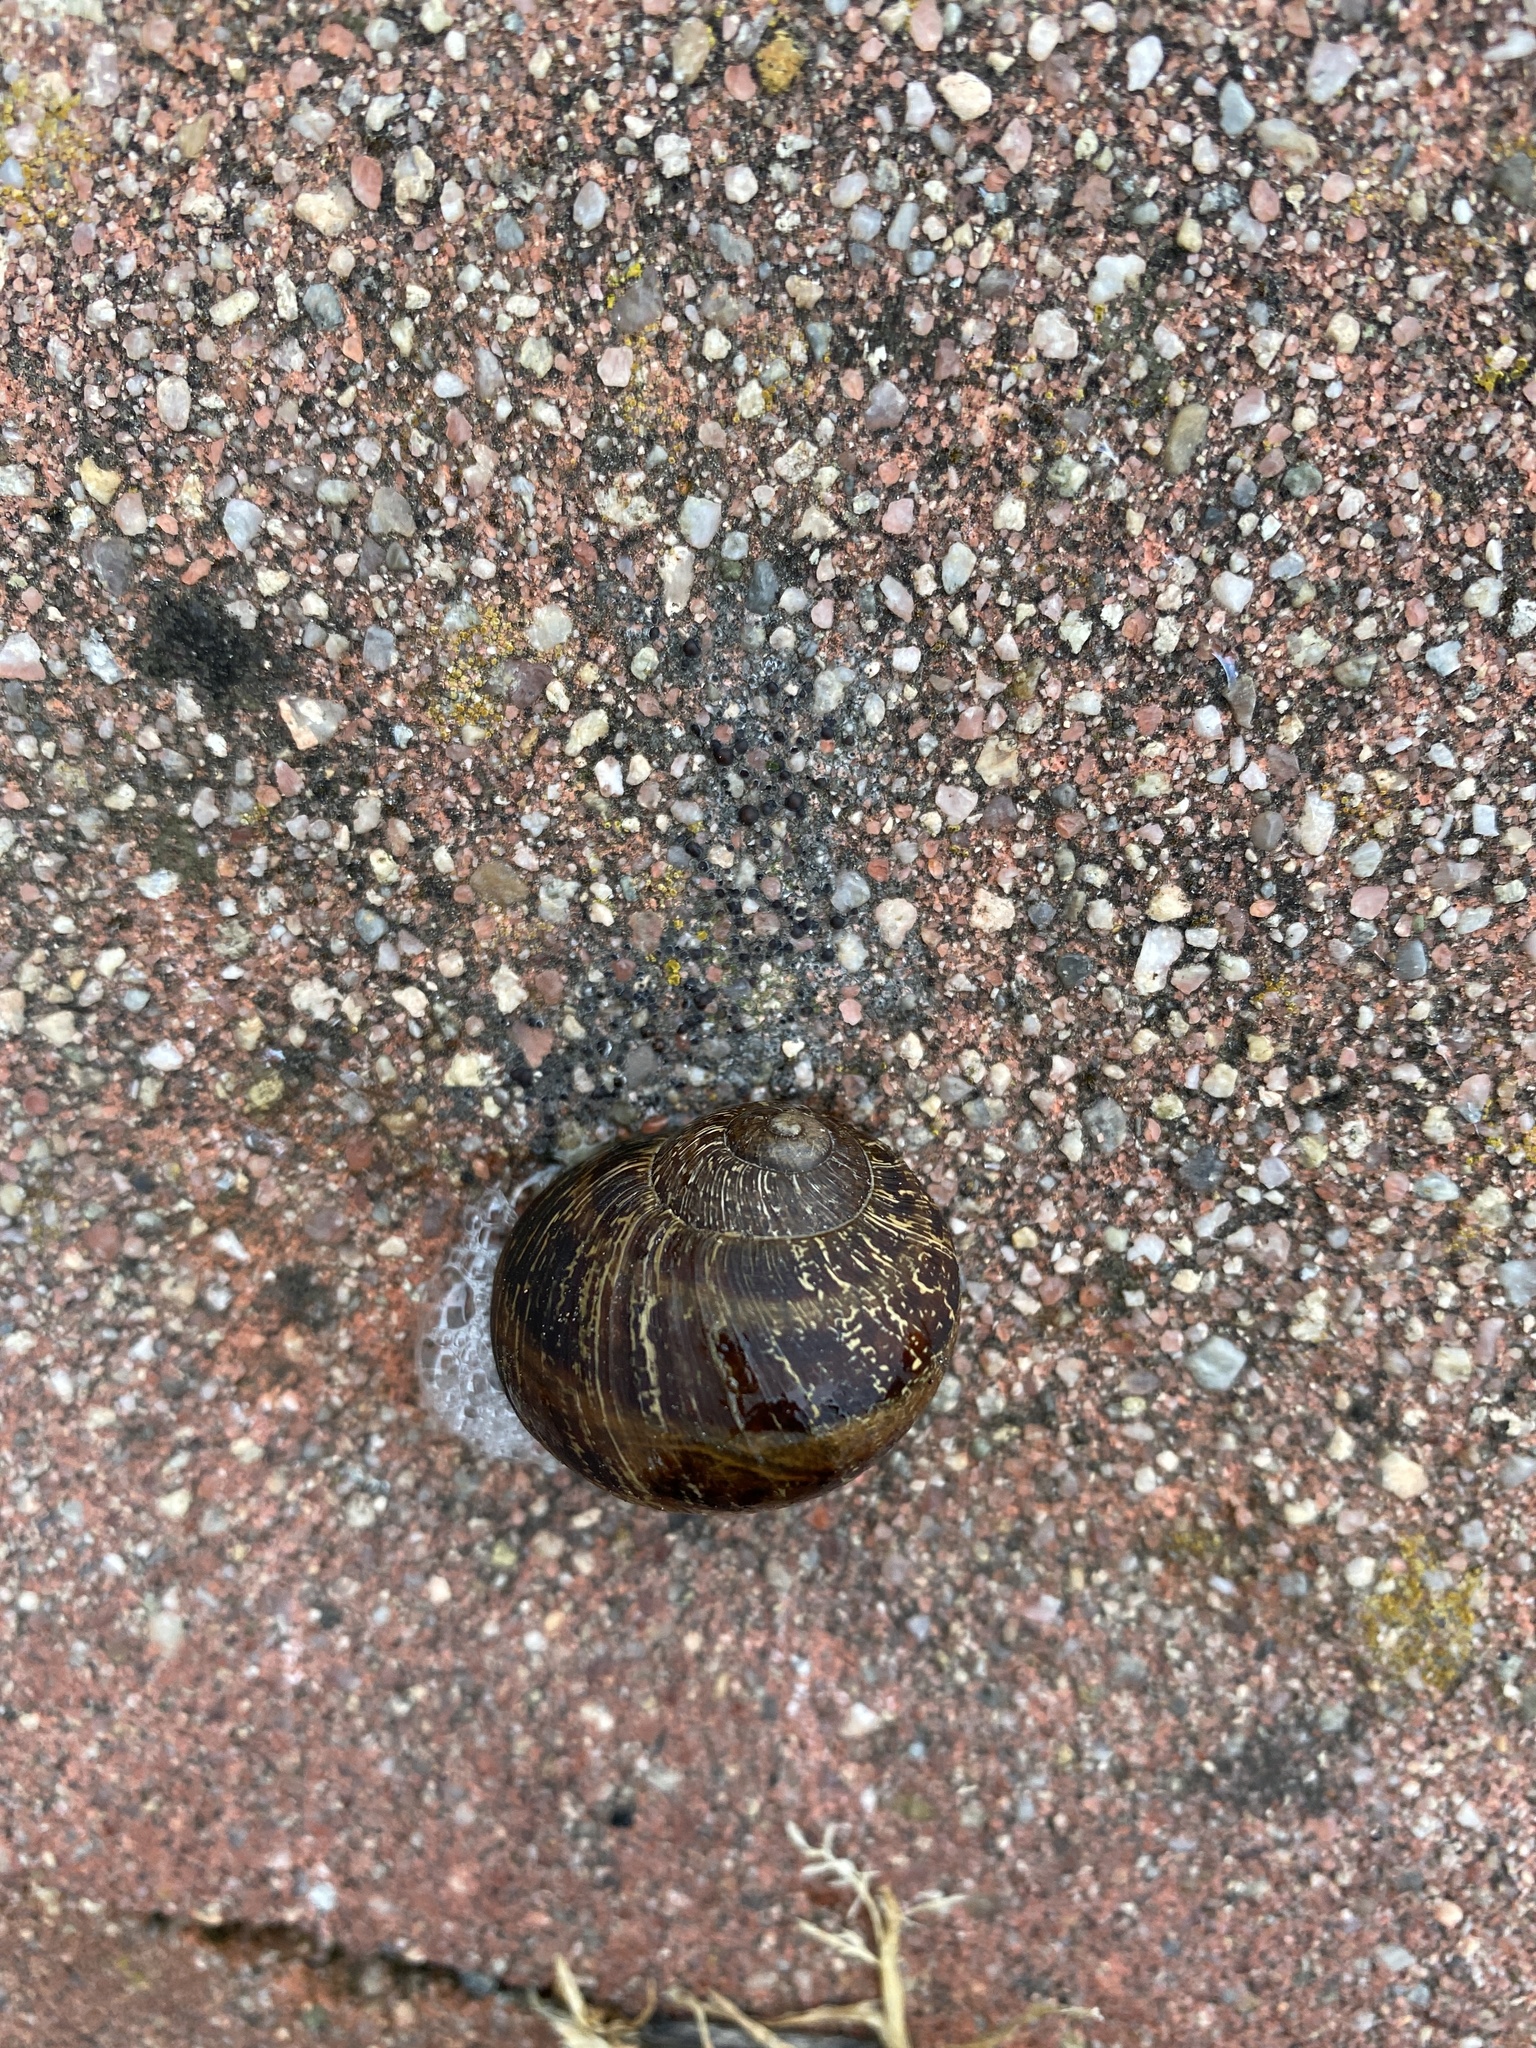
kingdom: Animalia
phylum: Mollusca
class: Gastropoda
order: Stylommatophora
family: Helicidae
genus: Cornu
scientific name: Cornu aspersum
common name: Brown garden snail
